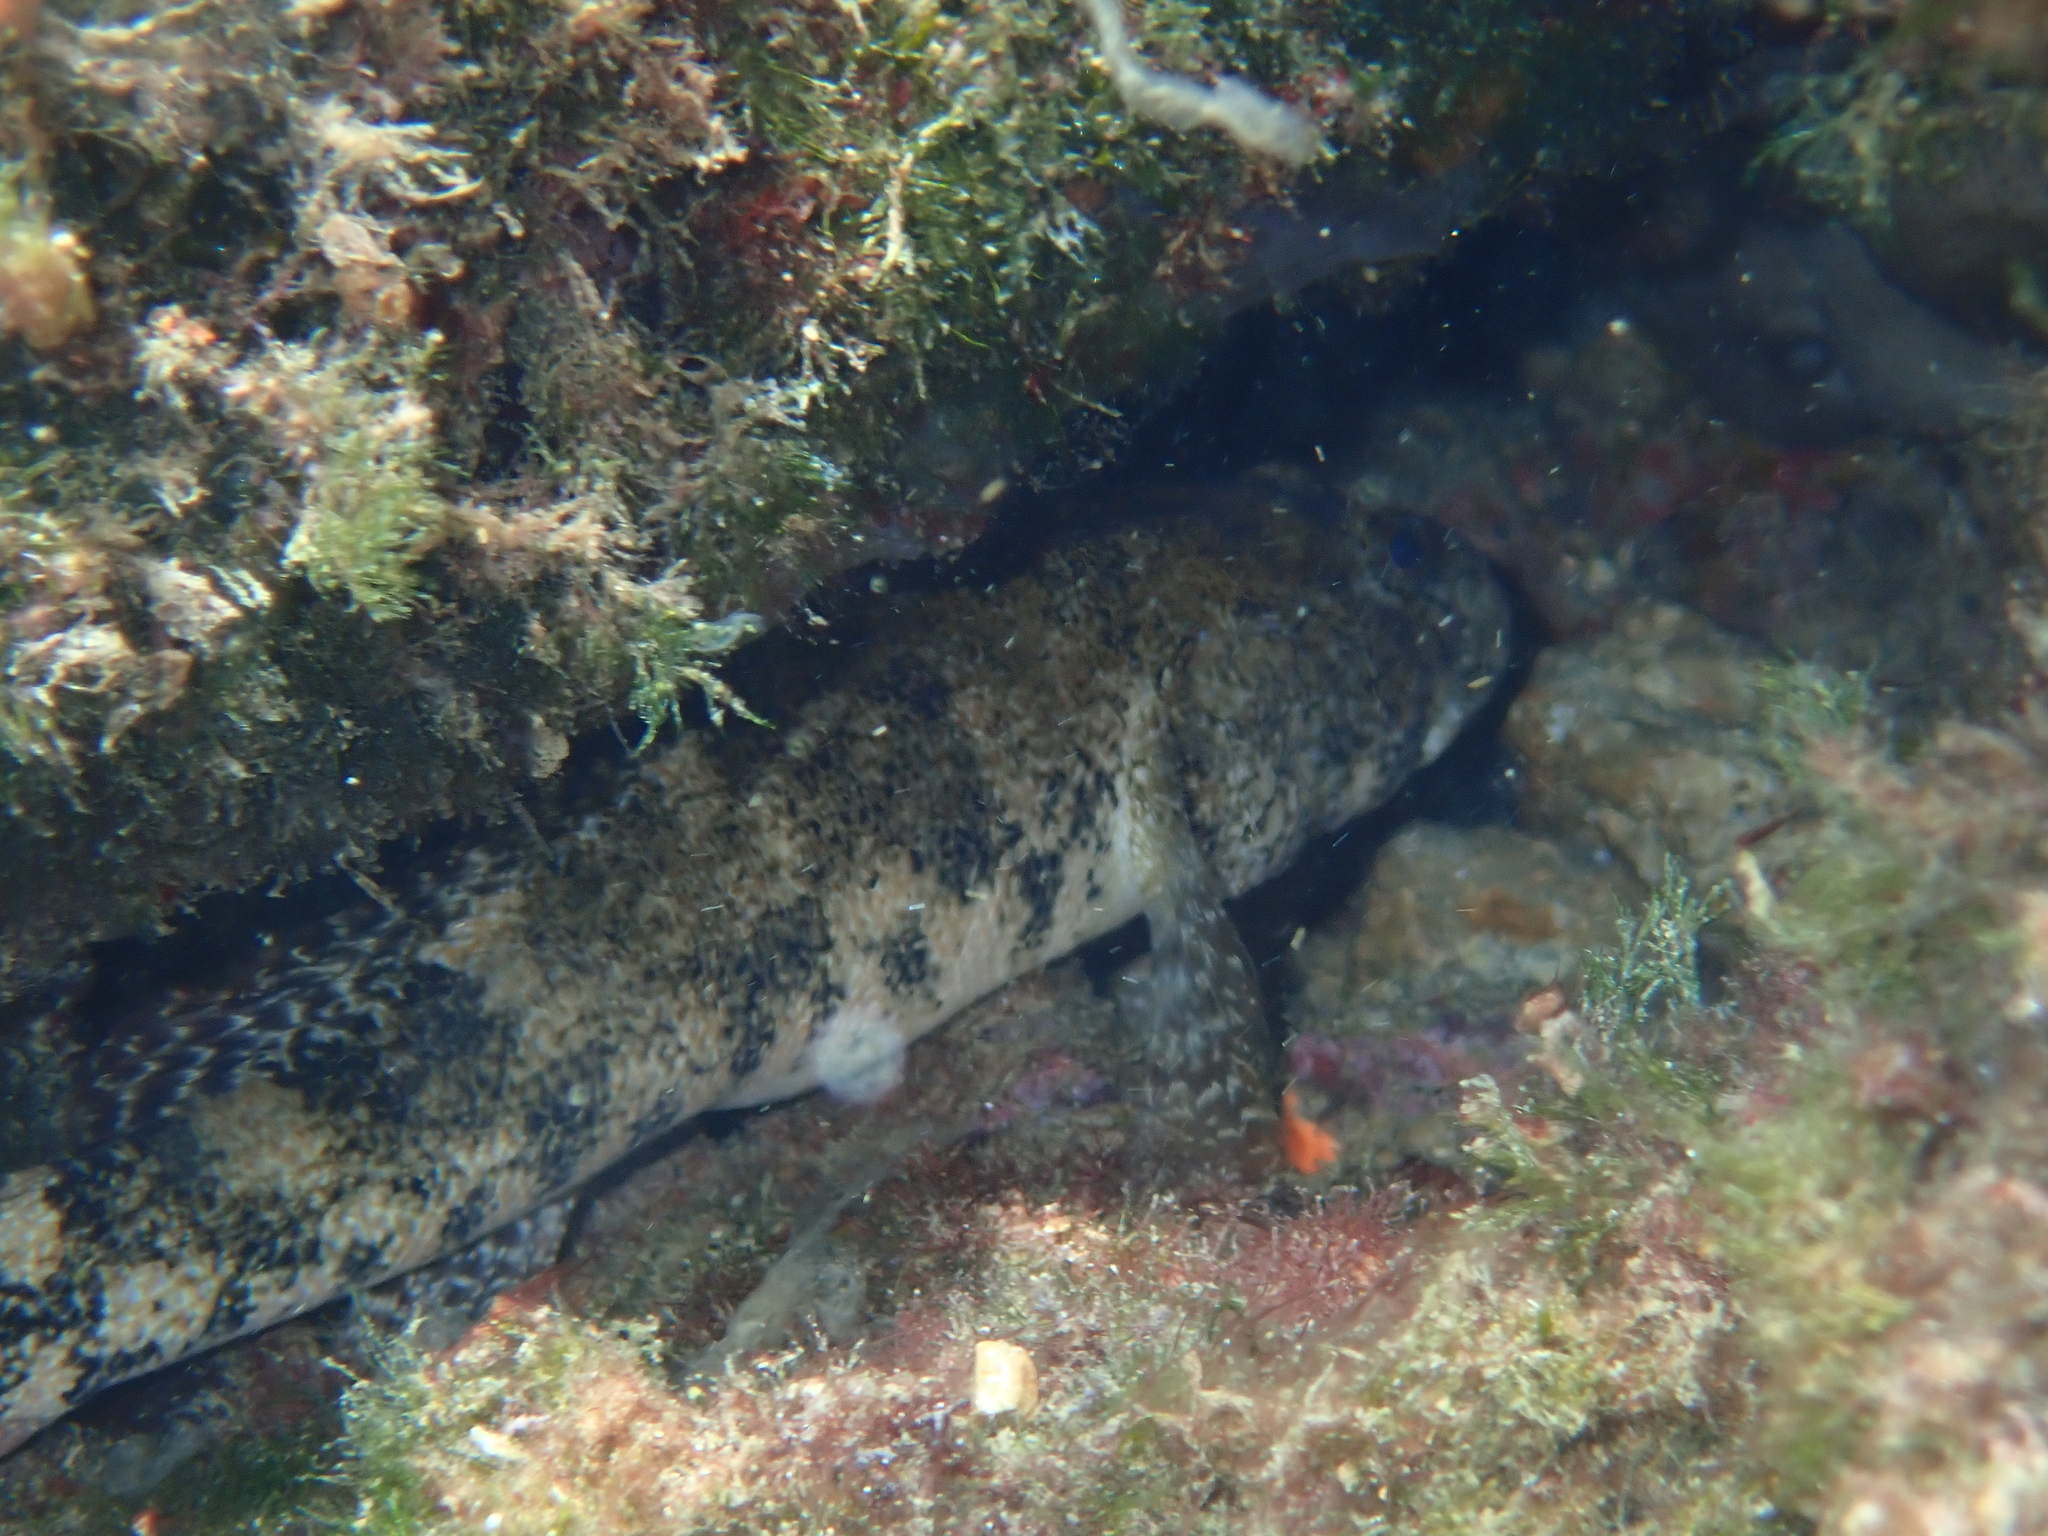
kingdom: Animalia
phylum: Chordata
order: Perciformes
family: Gobiidae
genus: Gobius
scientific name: Gobius cobitis
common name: Giant goby
